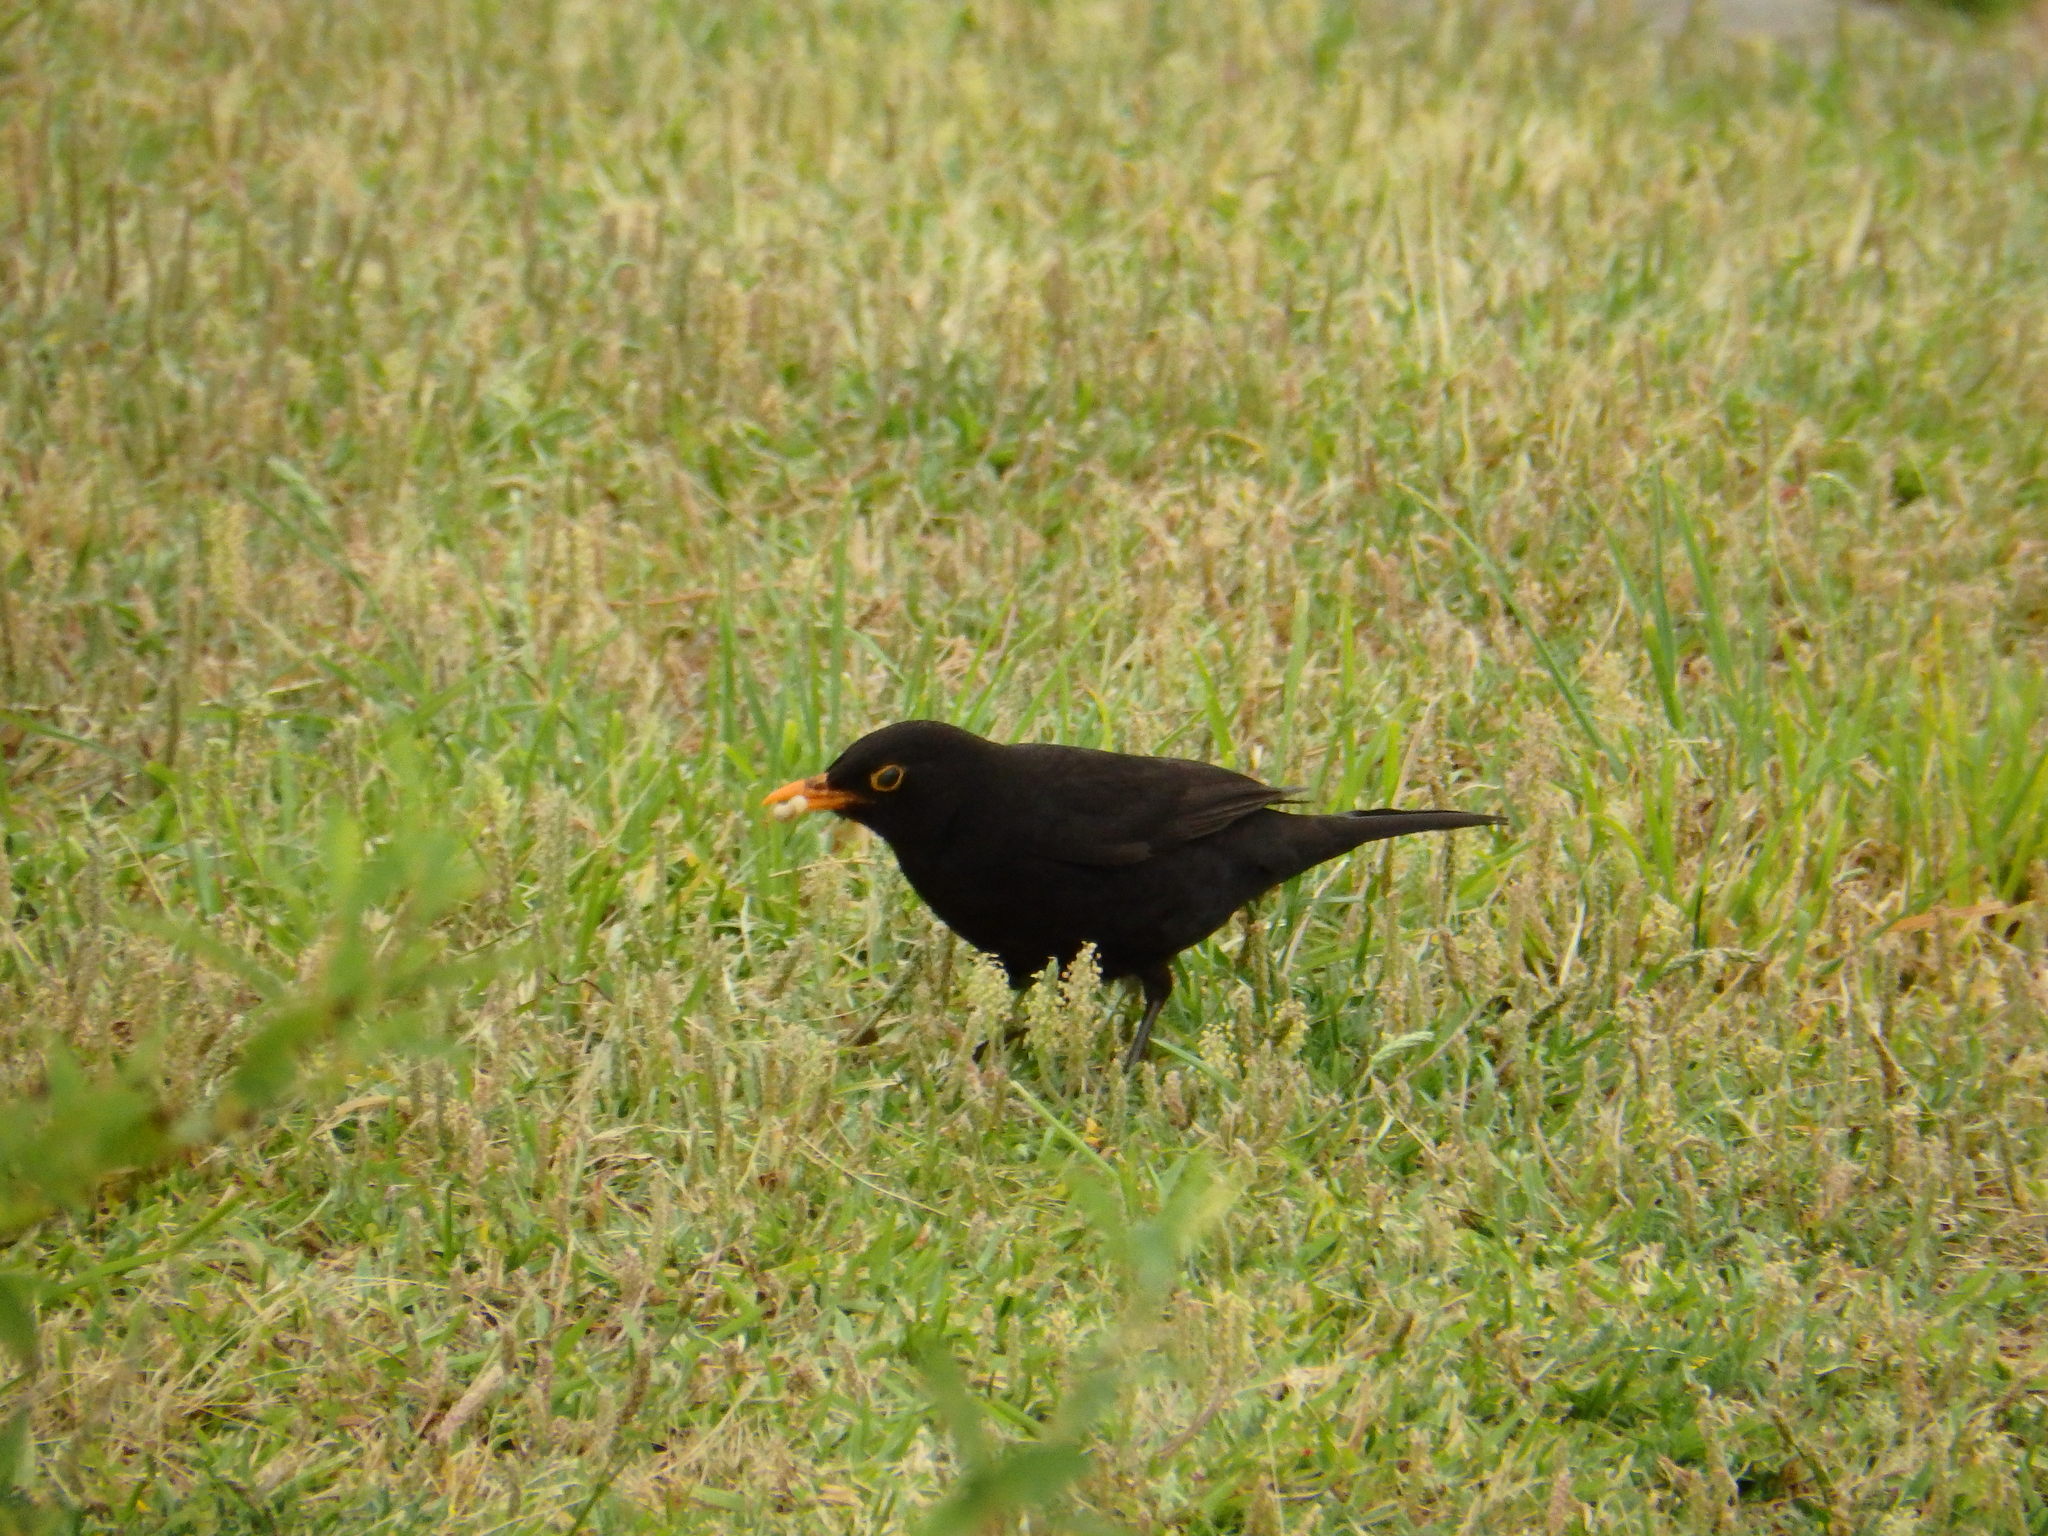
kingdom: Animalia
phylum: Chordata
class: Aves
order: Passeriformes
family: Turdidae
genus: Turdus
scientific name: Turdus merula
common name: Common blackbird
